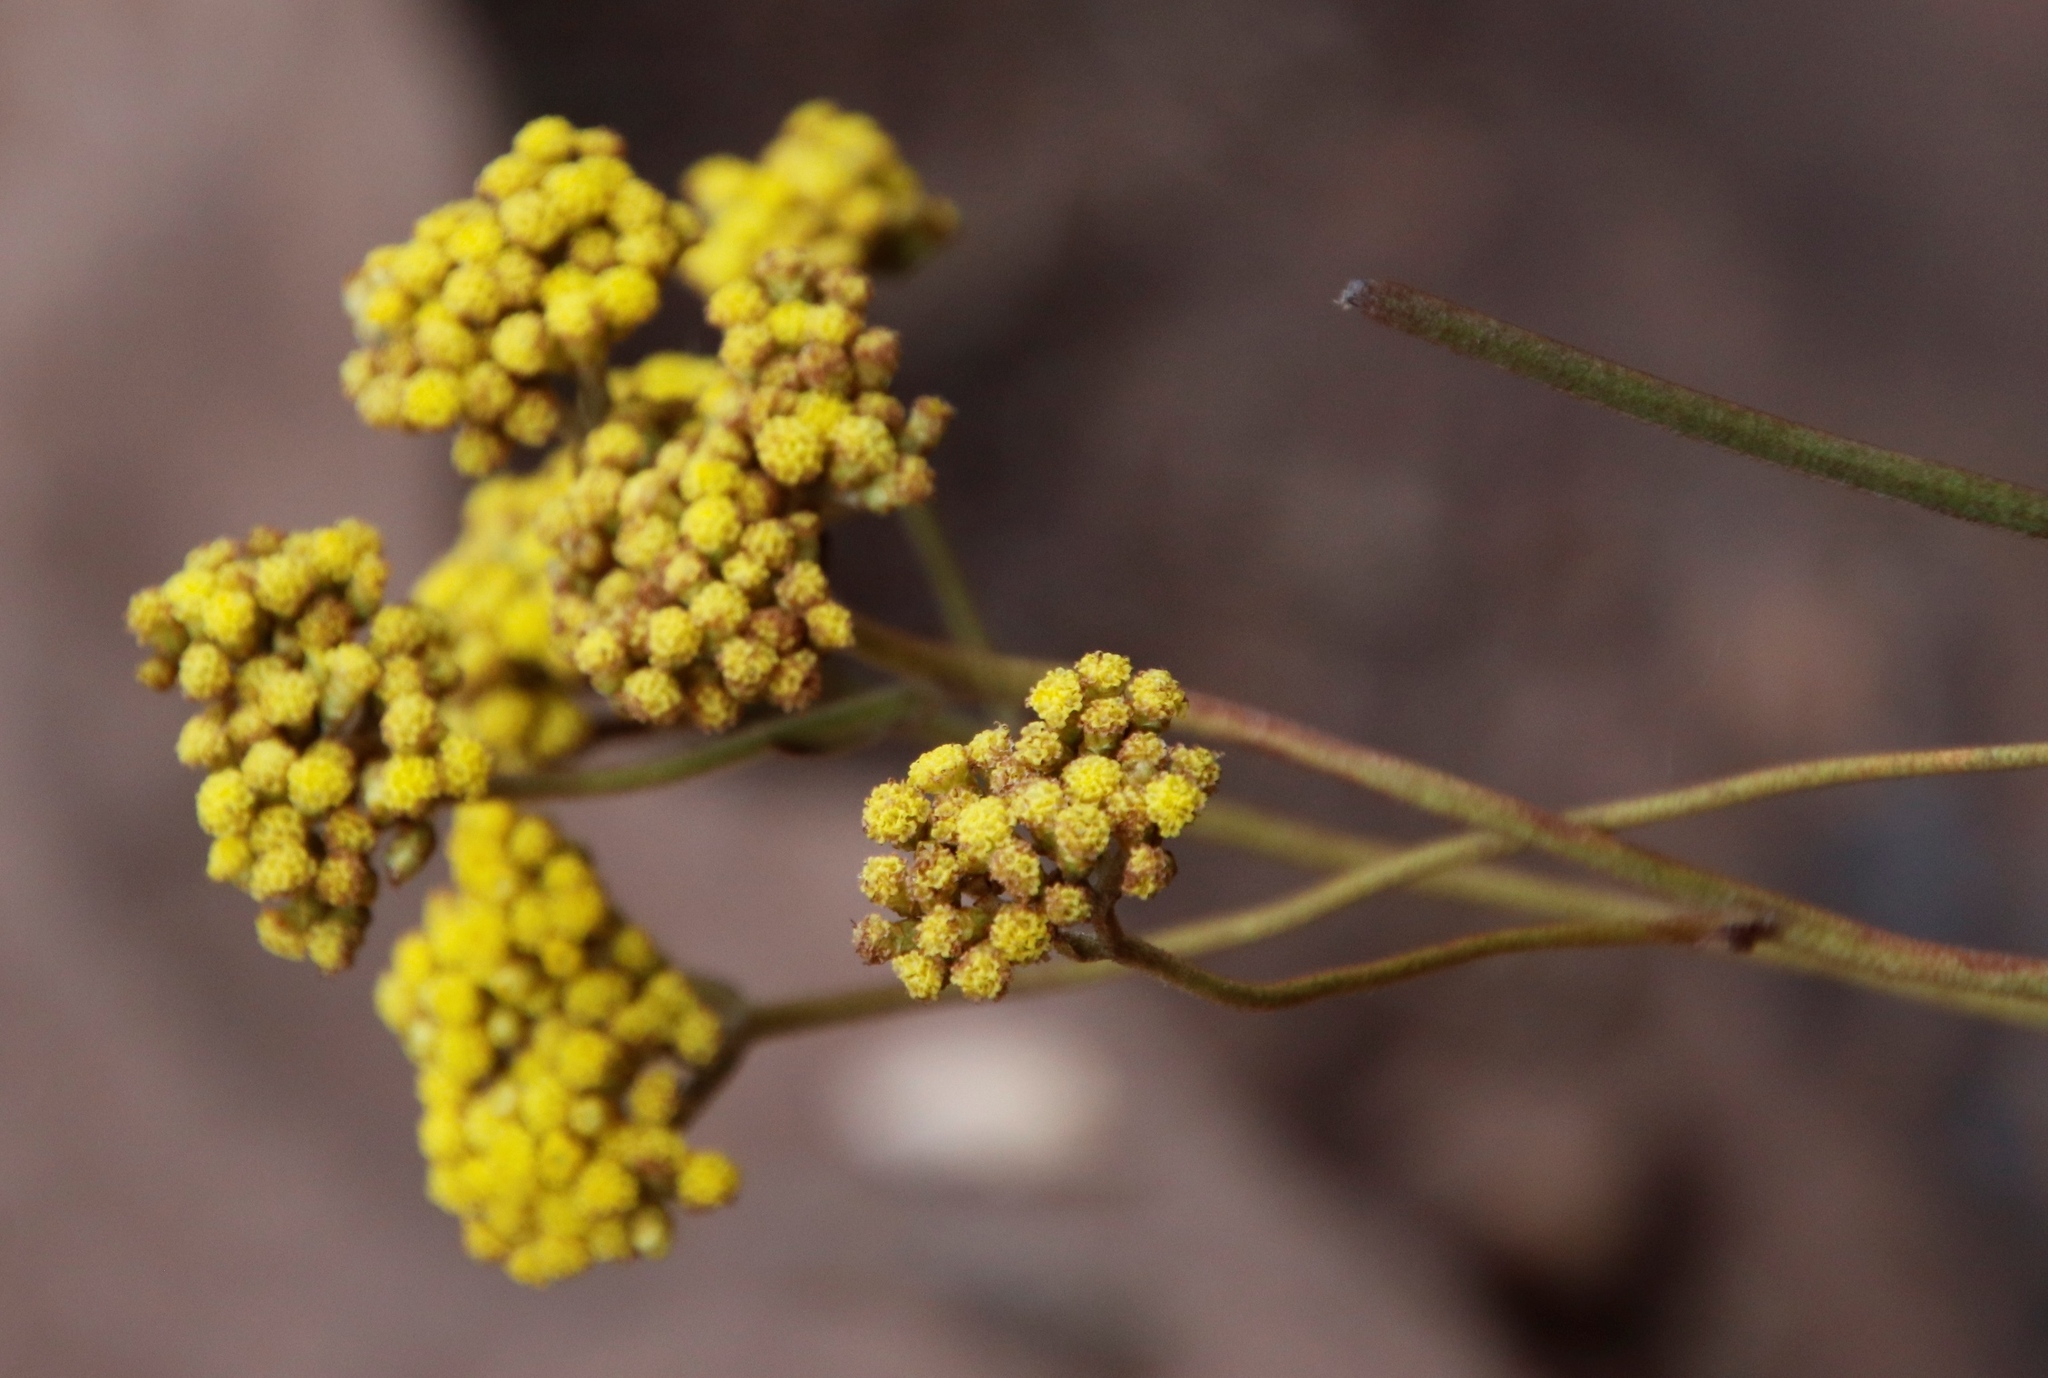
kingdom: Plantae
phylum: Tracheophyta
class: Magnoliopsida
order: Asterales
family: Asteraceae
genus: Helichrysum
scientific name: Helichrysum nudifolium
